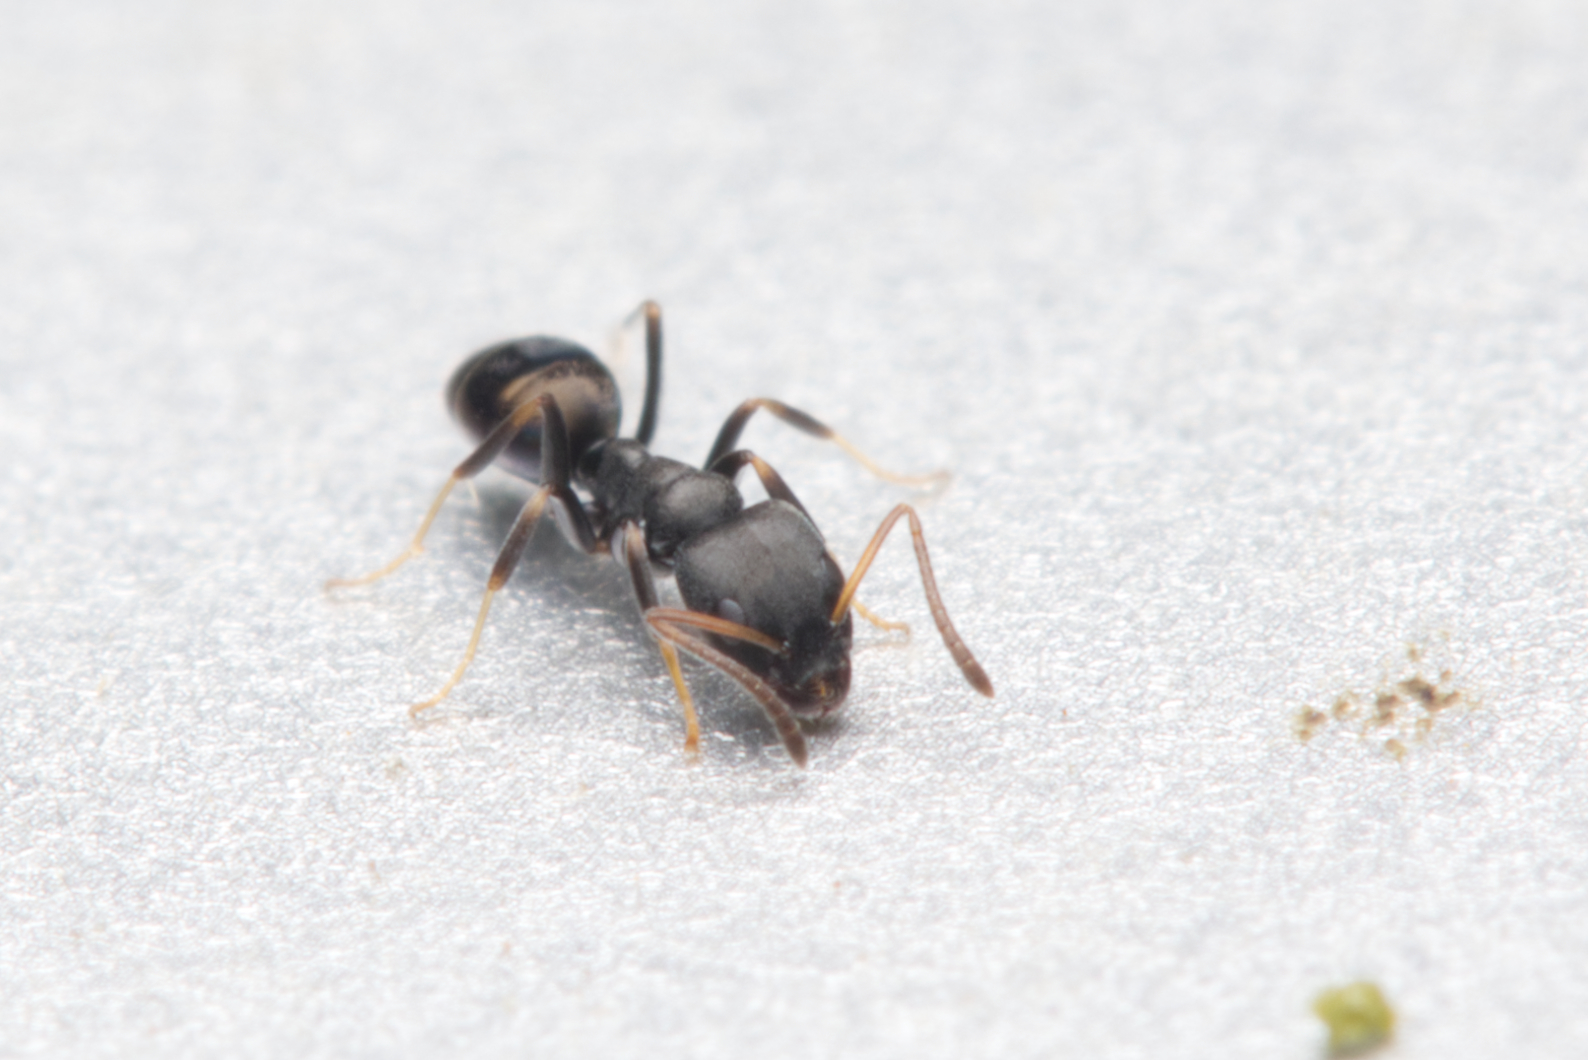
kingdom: Animalia
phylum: Arthropoda
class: Insecta
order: Hymenoptera
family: Formicidae
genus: Ochetellus
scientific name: Ochetellus punctatissimus
